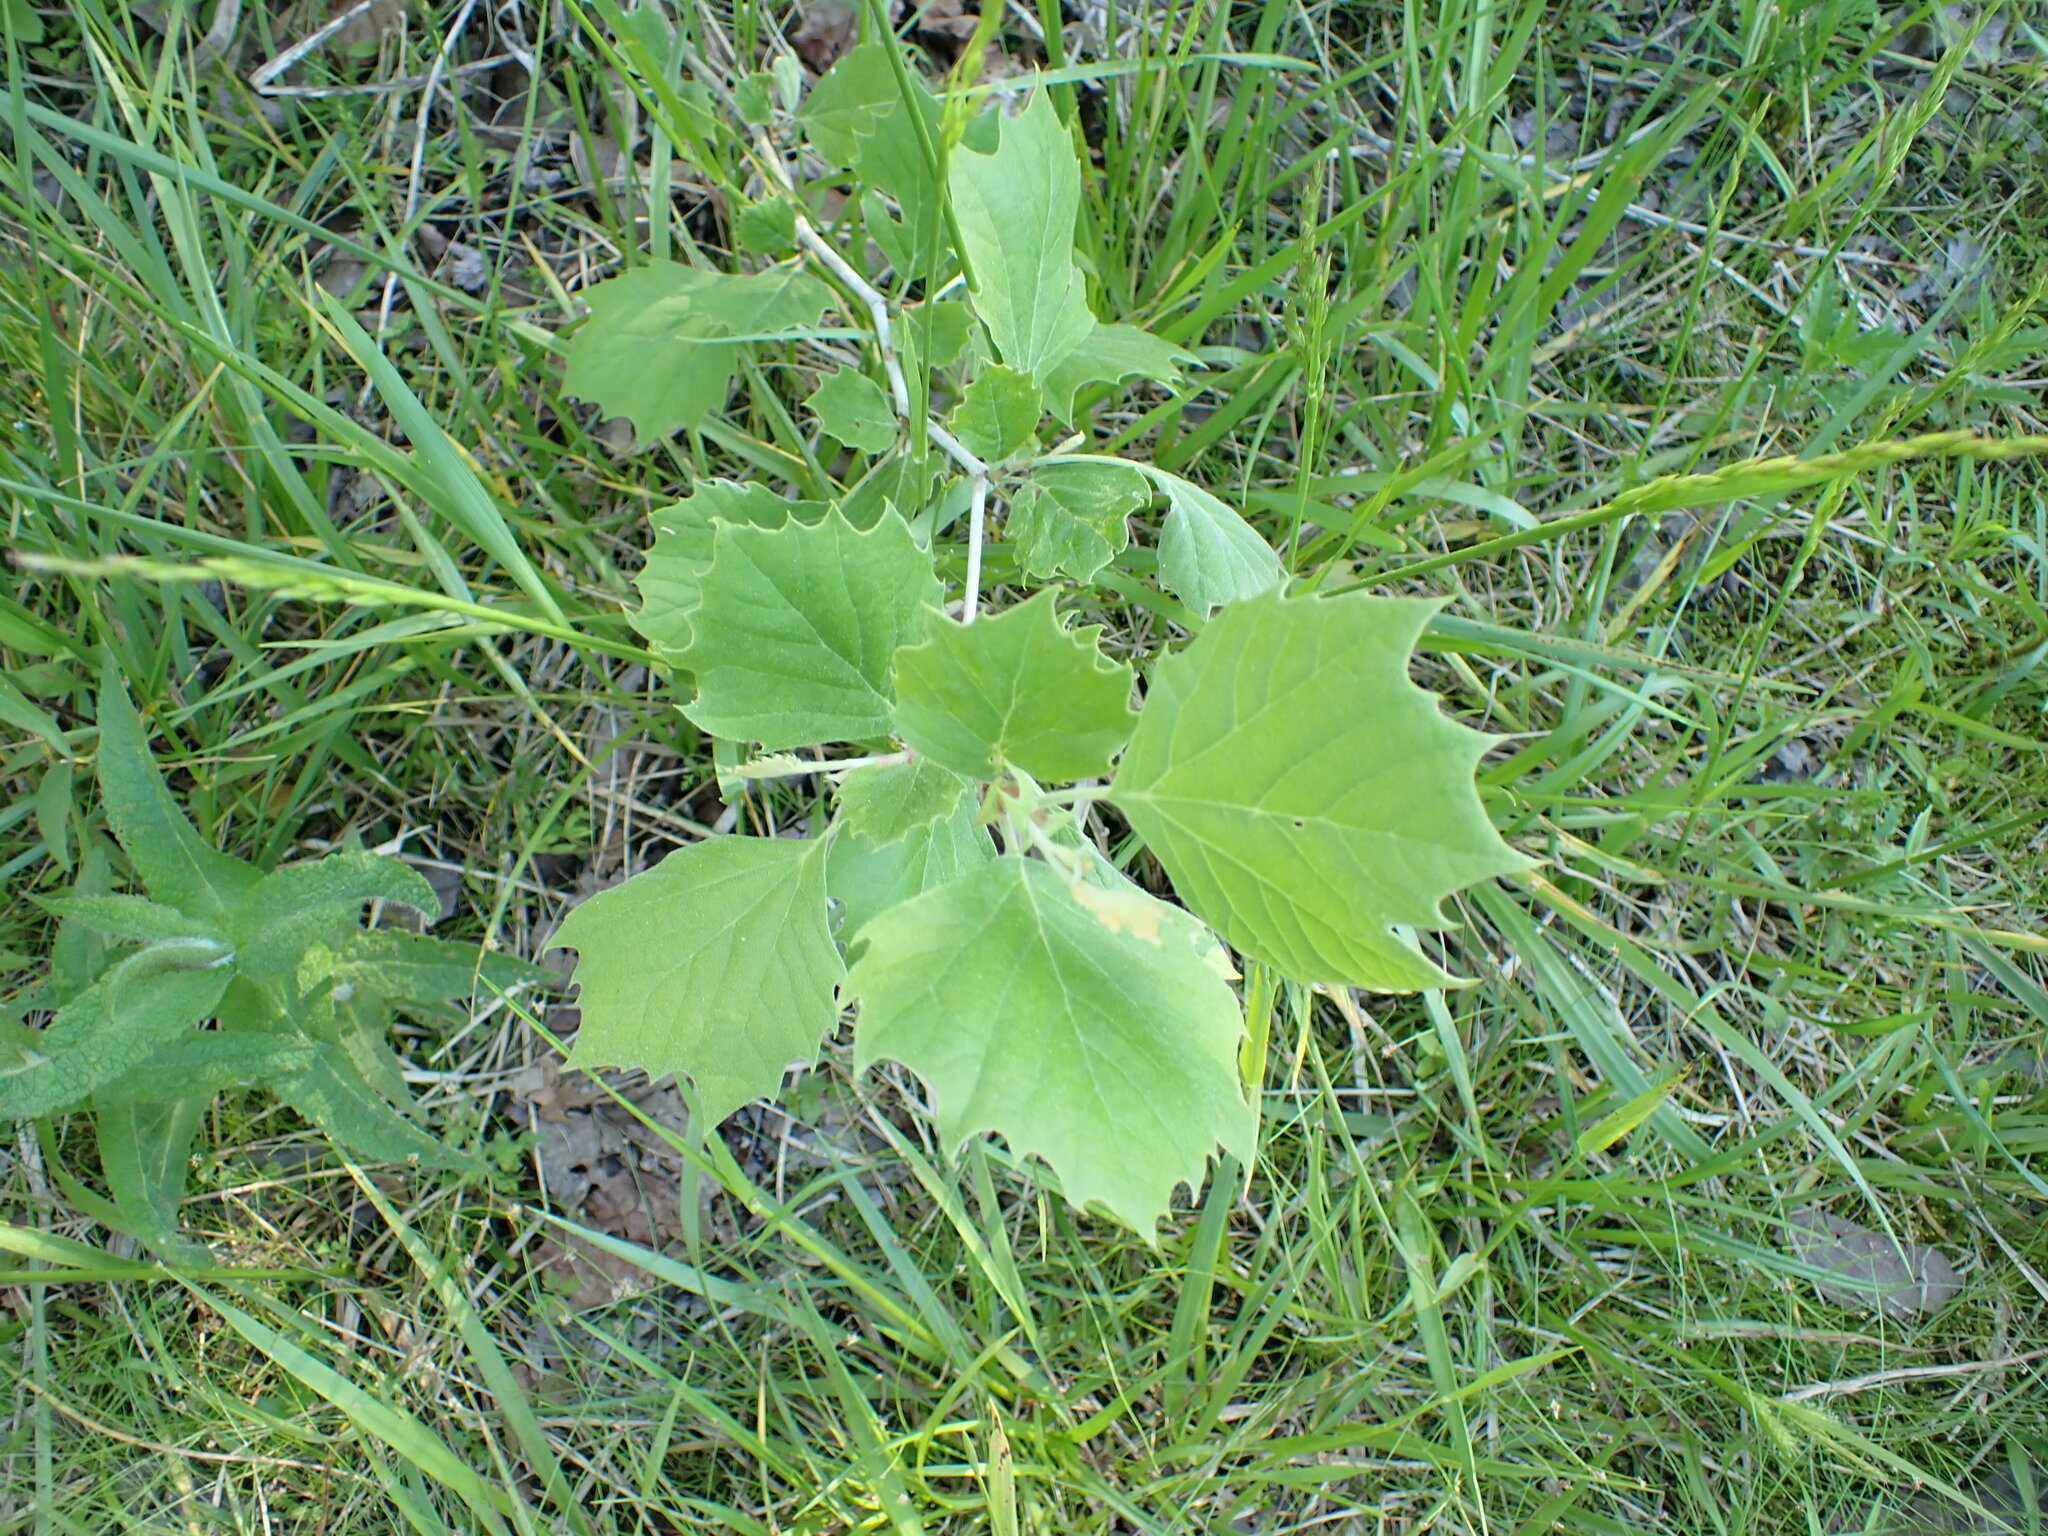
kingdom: Plantae
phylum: Tracheophyta
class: Magnoliopsida
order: Proteales
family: Platanaceae
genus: Platanus
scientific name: Platanus occidentalis
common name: American sycamore
